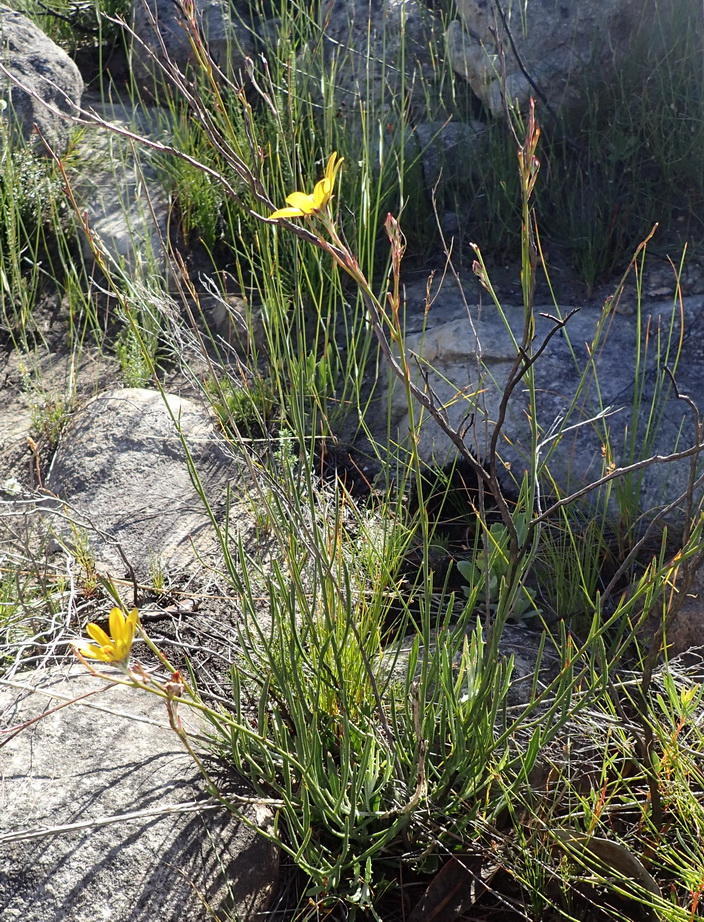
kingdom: Plantae
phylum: Tracheophyta
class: Magnoliopsida
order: Asterales
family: Asteraceae
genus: Osteospermum
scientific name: Osteospermum asperulum
